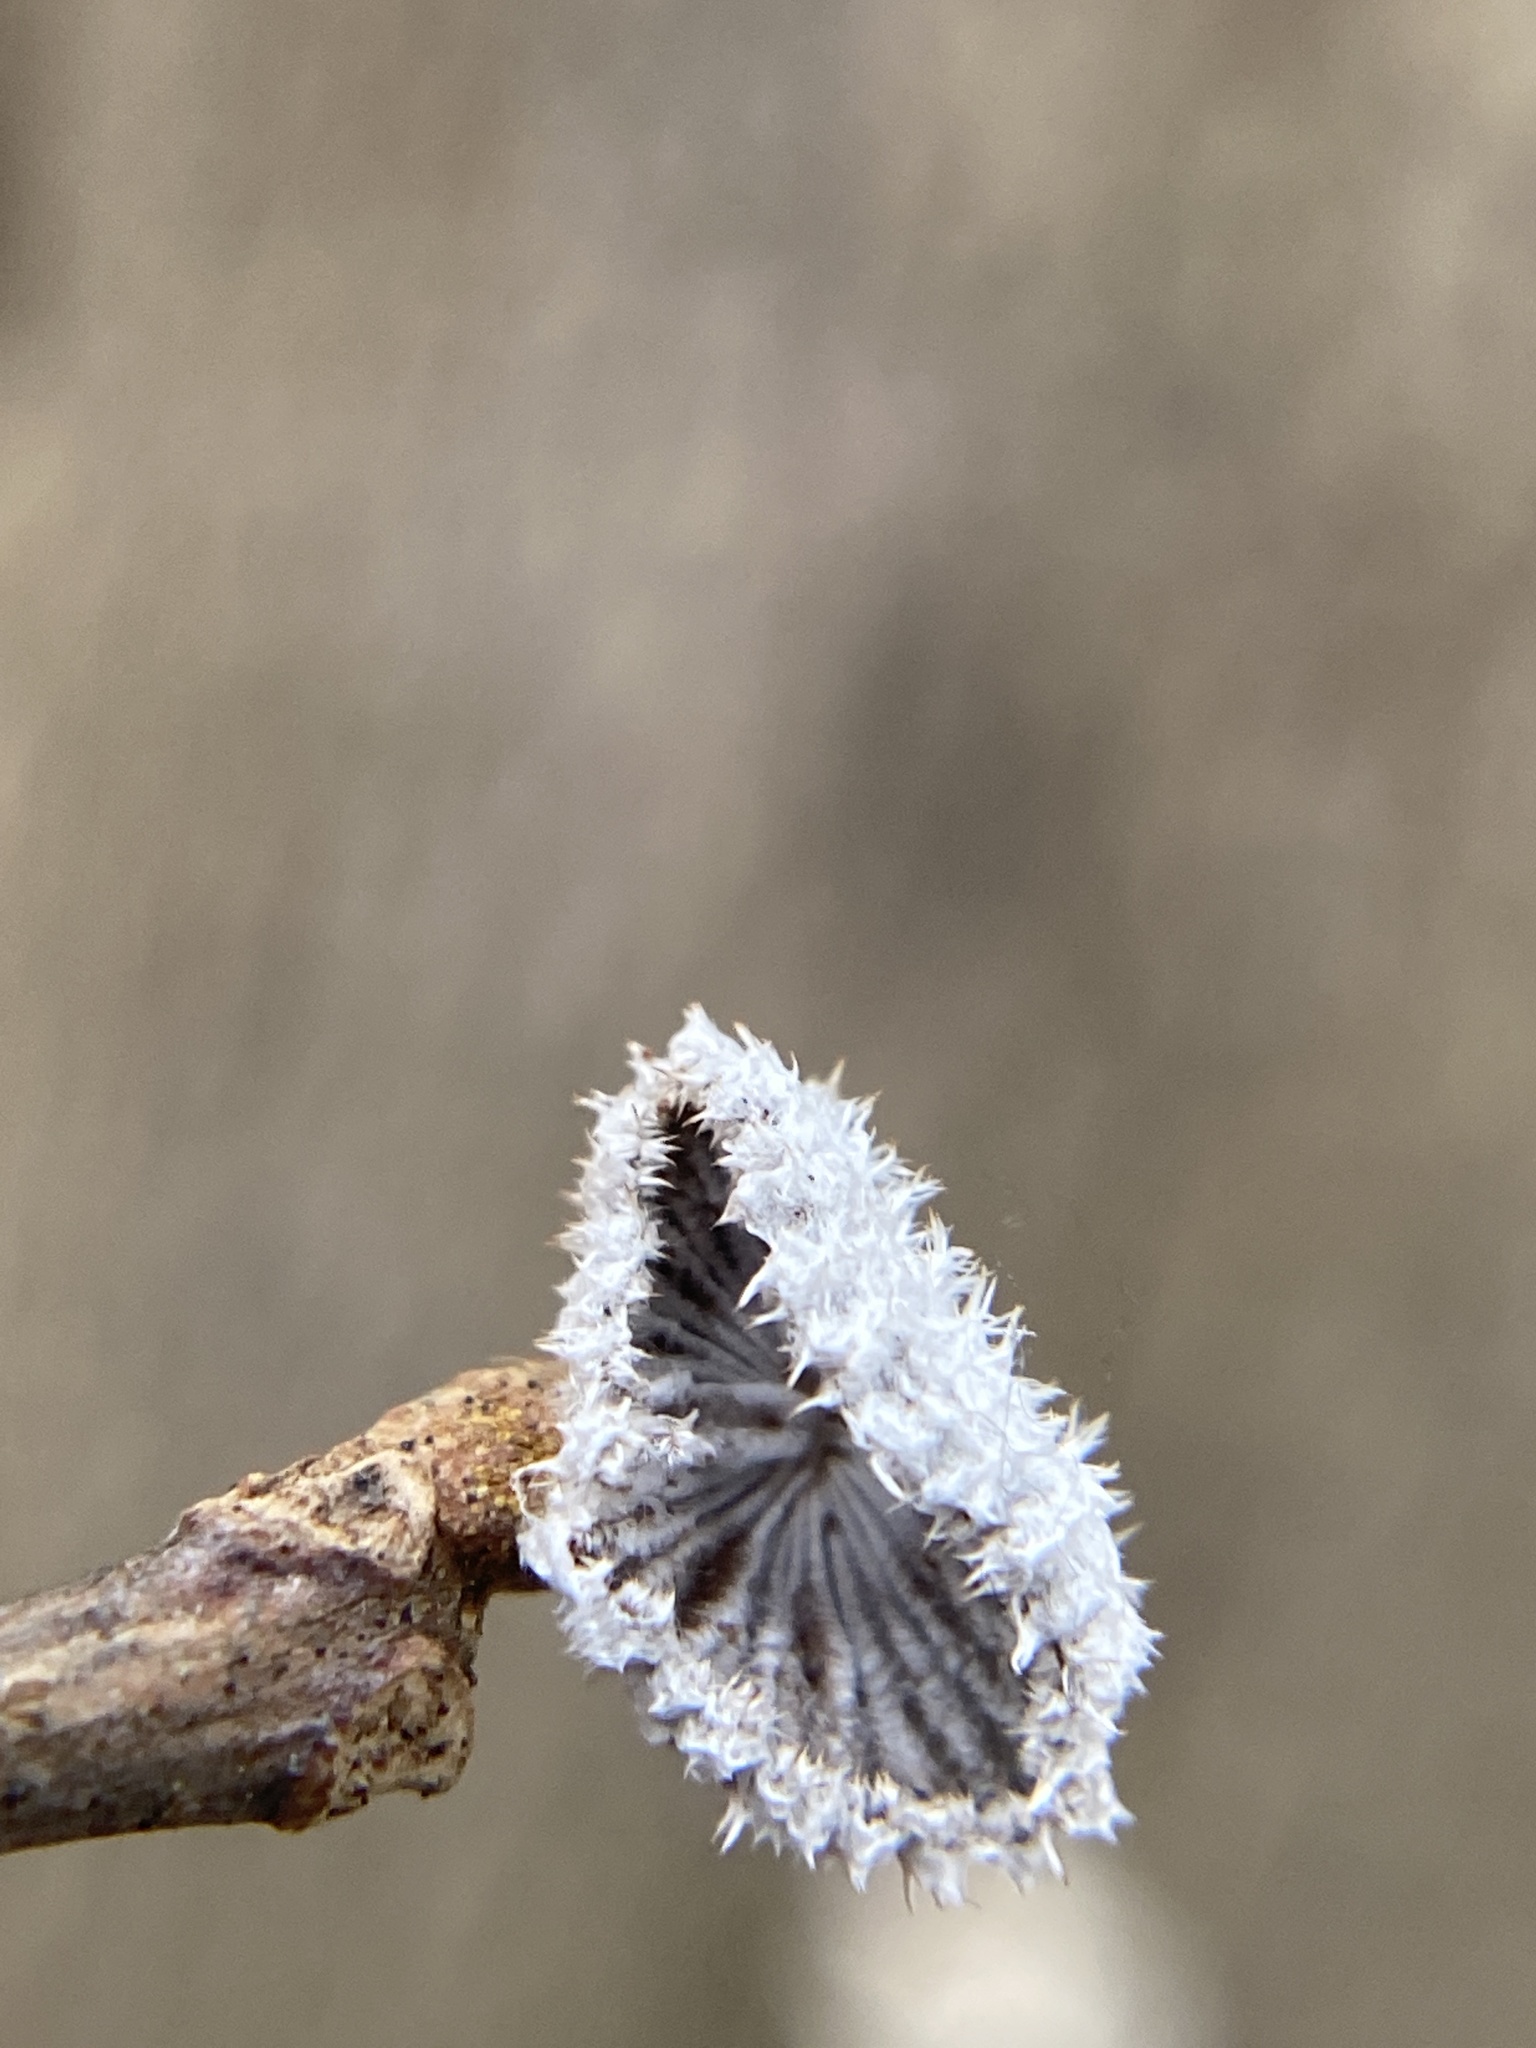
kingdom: Fungi
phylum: Basidiomycota
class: Agaricomycetes
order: Agaricales
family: Schizophyllaceae
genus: Schizophyllum
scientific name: Schizophyllum commune
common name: Common porecrust
